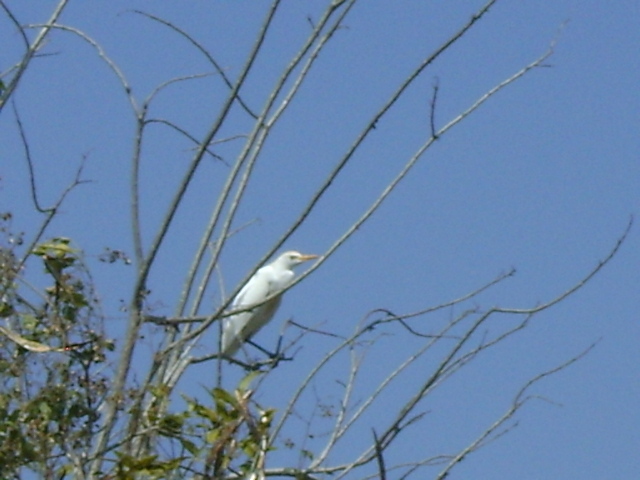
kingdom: Animalia
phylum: Chordata
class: Aves
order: Pelecaniformes
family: Ardeidae
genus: Bubulcus
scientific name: Bubulcus ibis
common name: Cattle egret
